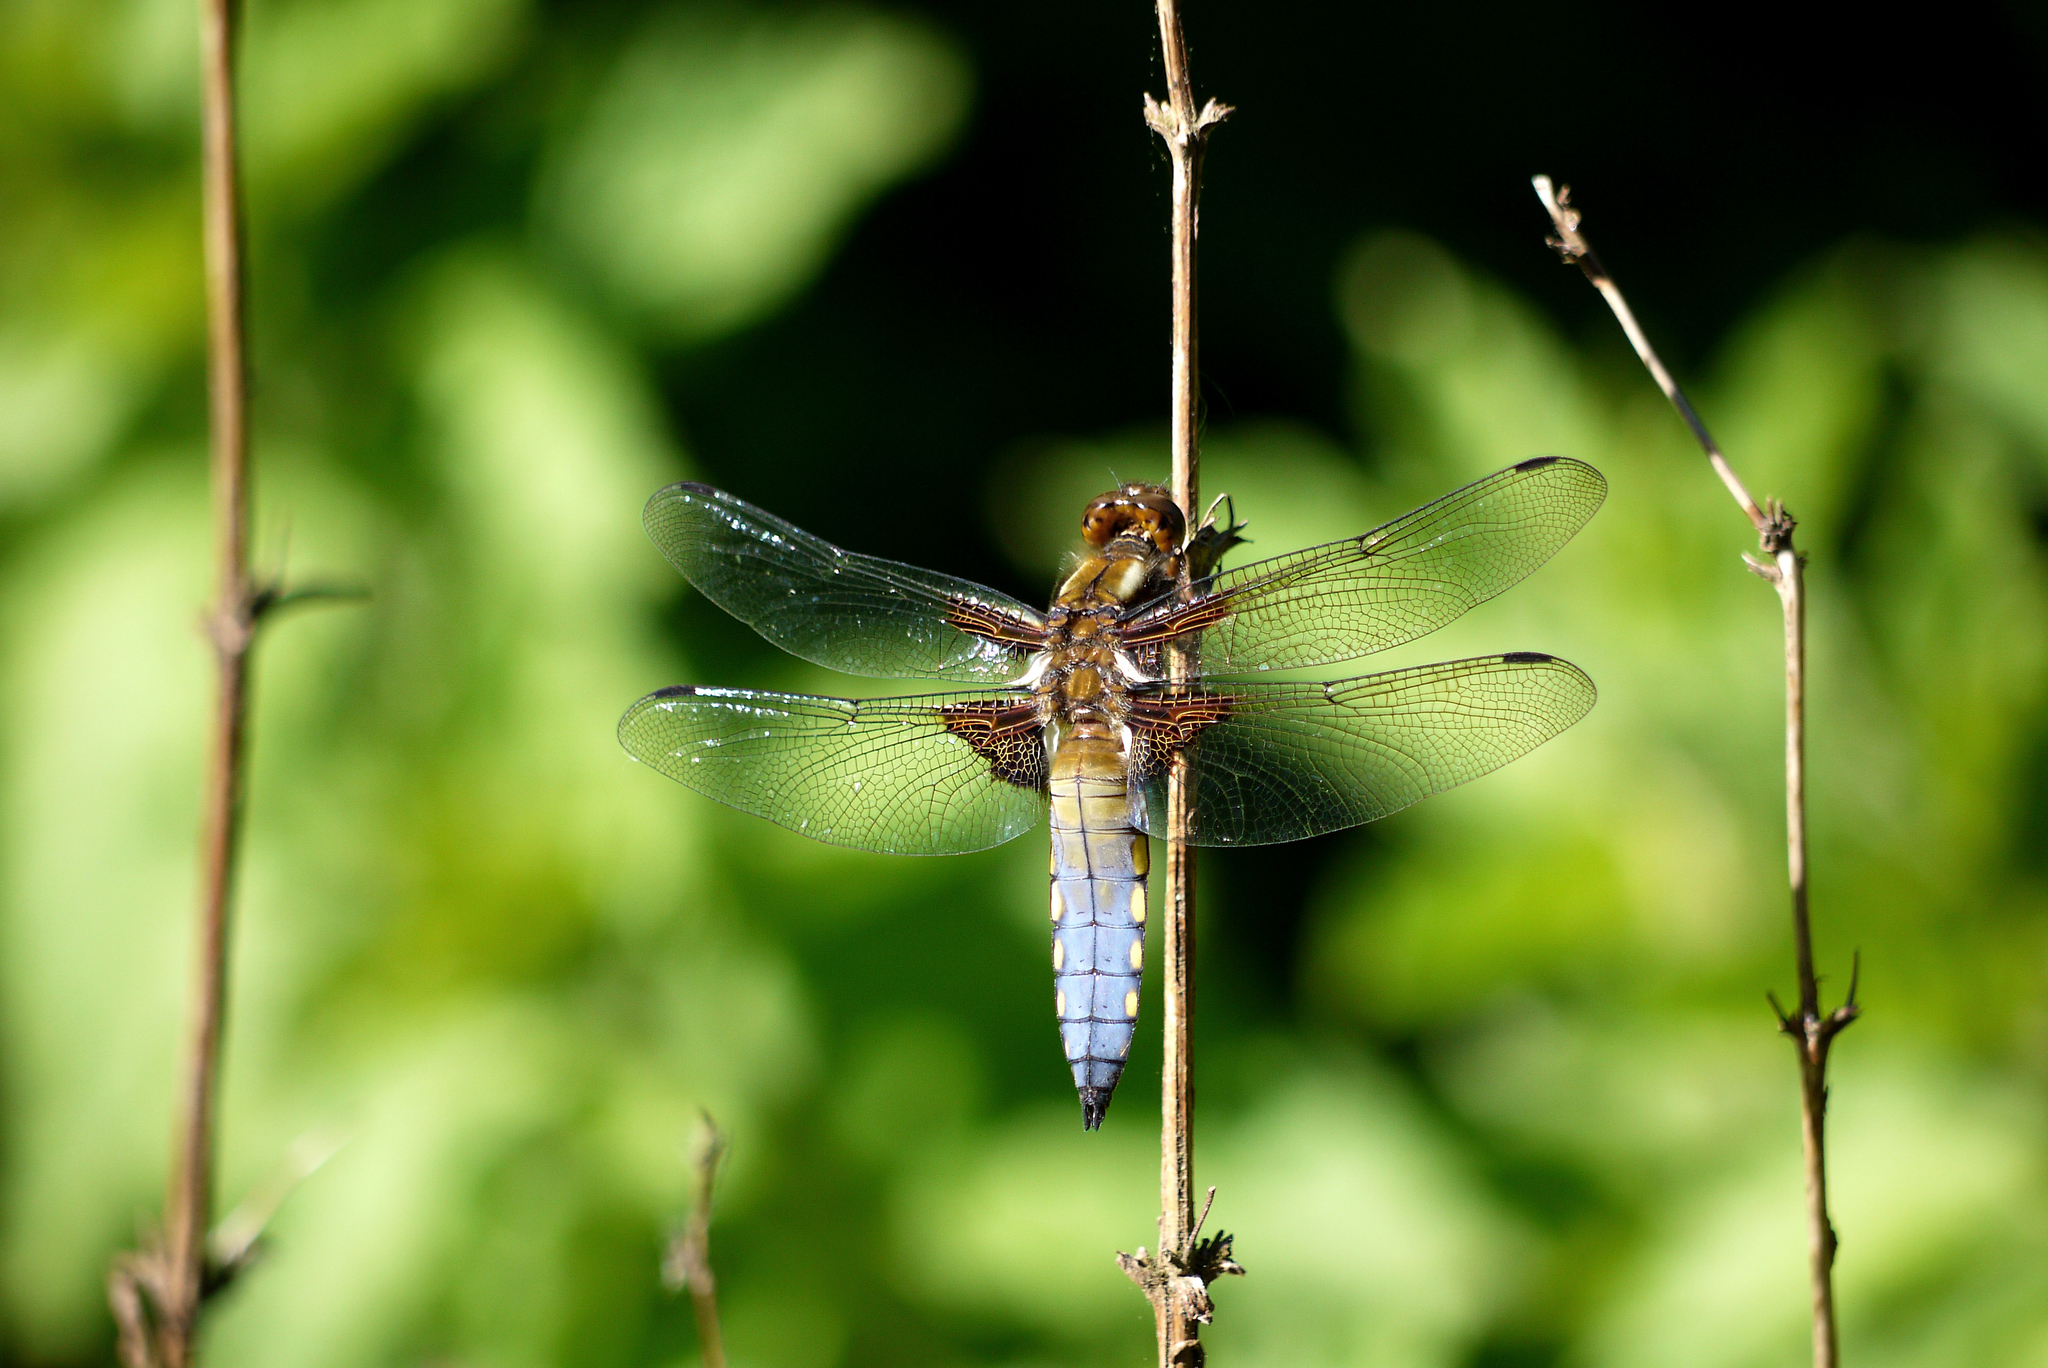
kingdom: Animalia
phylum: Arthropoda
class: Insecta
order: Odonata
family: Libellulidae
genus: Libellula
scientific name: Libellula depressa
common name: Broad-bodied chaser
